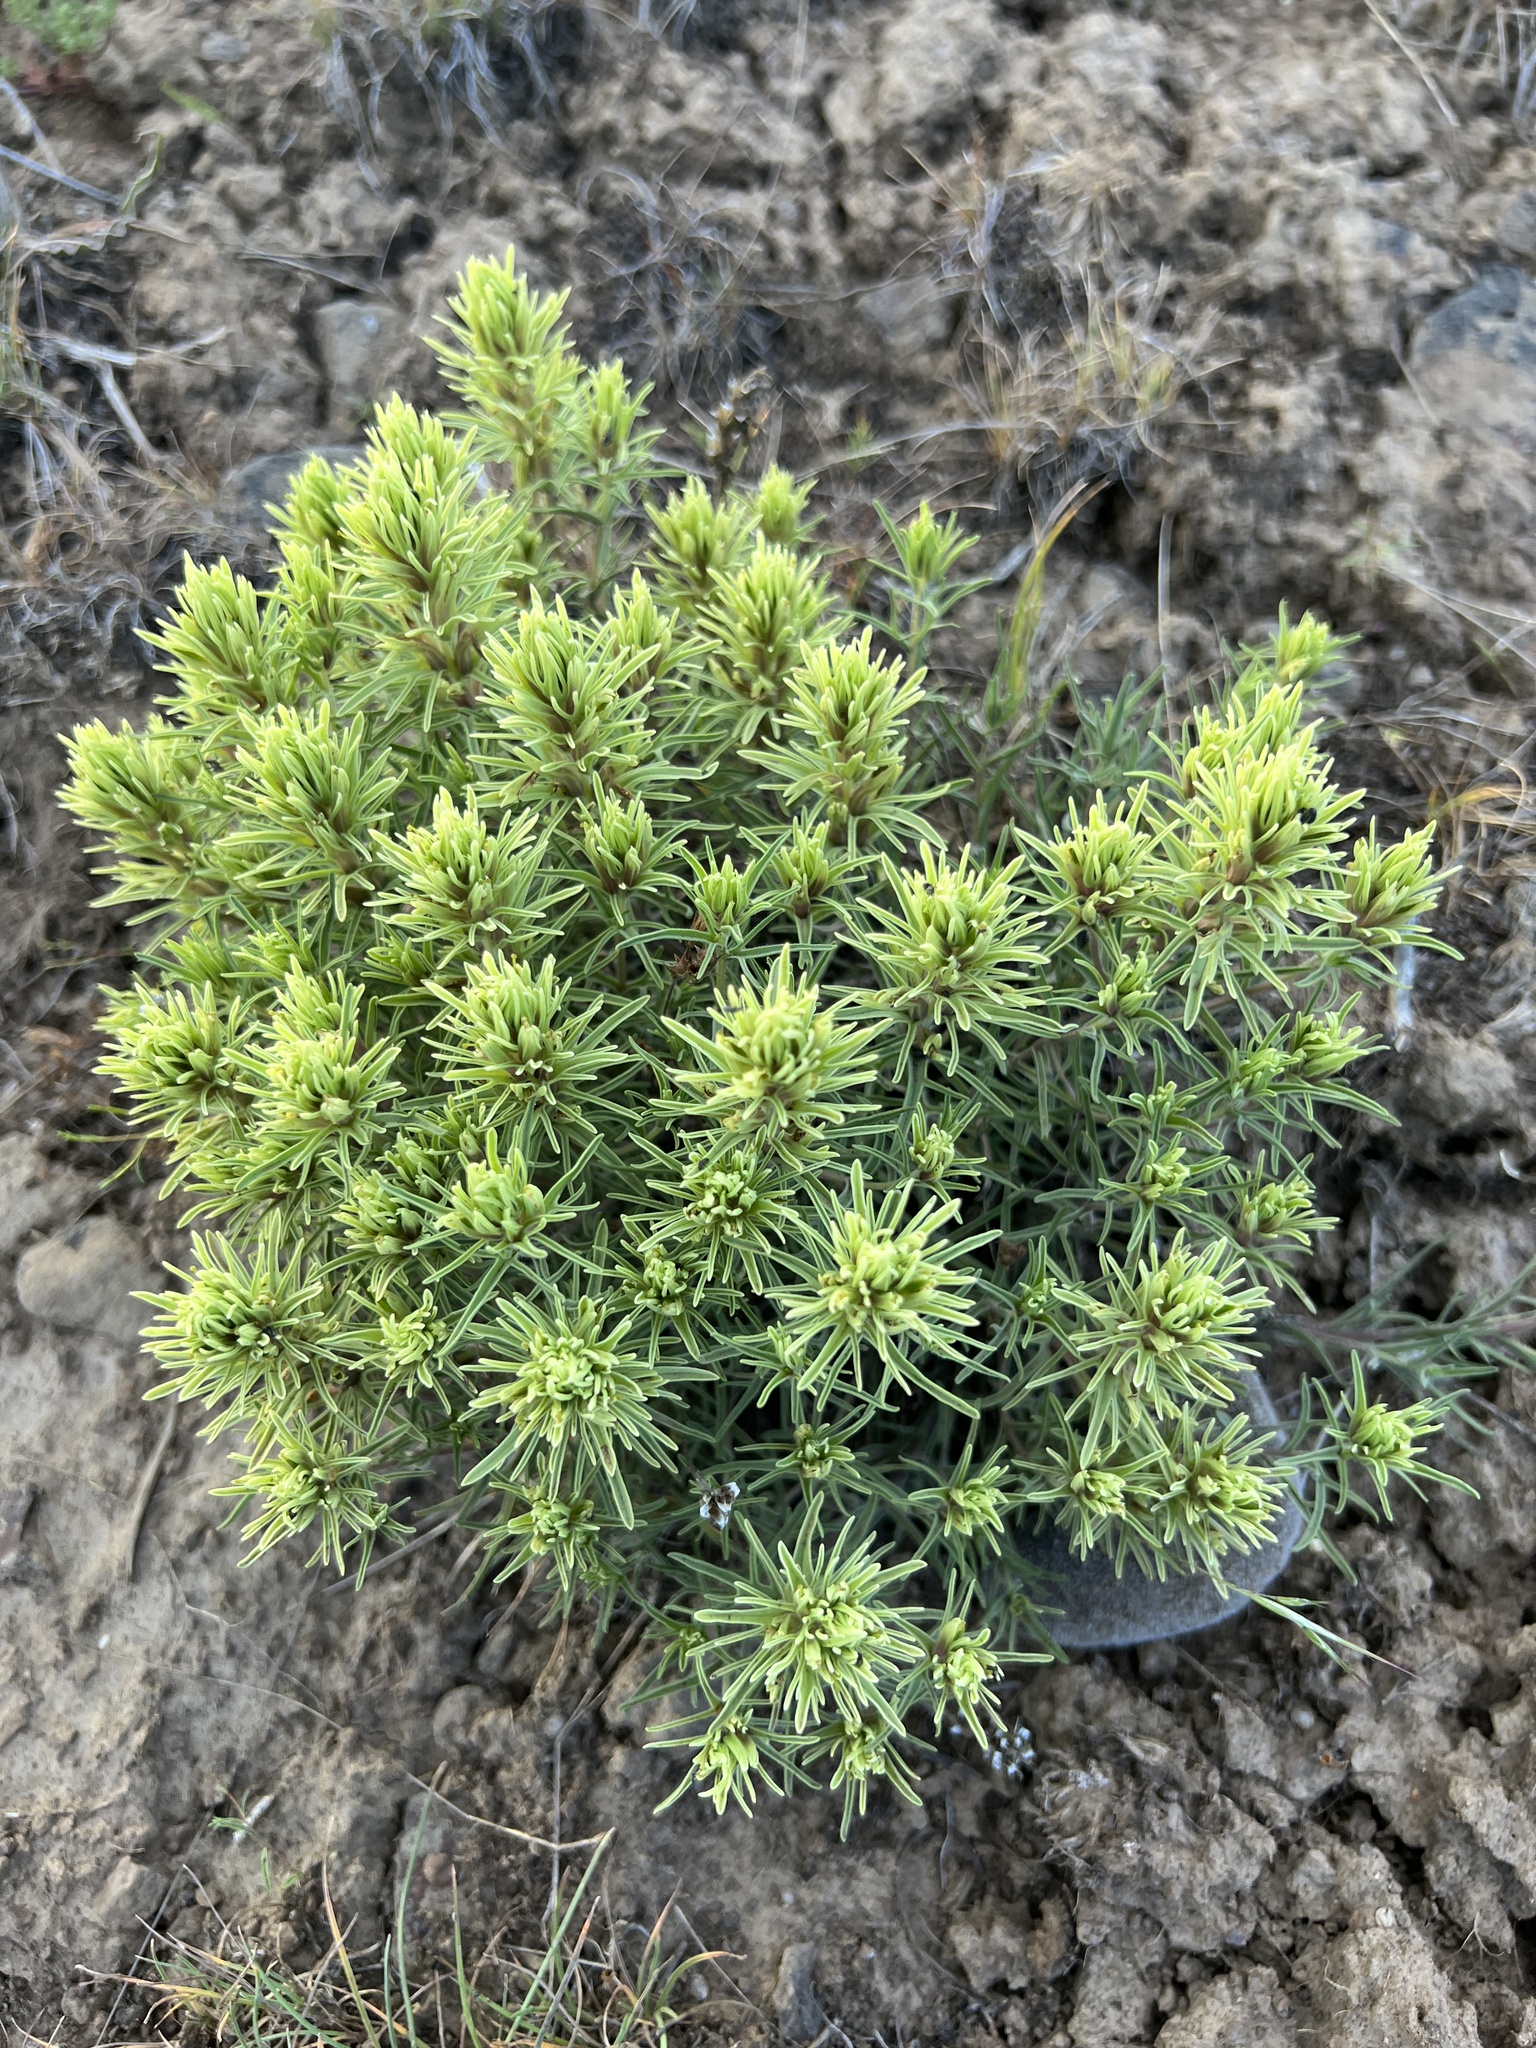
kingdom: Plantae
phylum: Tracheophyta
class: Magnoliopsida
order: Lamiales
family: Orobanchaceae
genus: Castilleja
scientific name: Castilleja thompsonii
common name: Thompson's paintbrush
